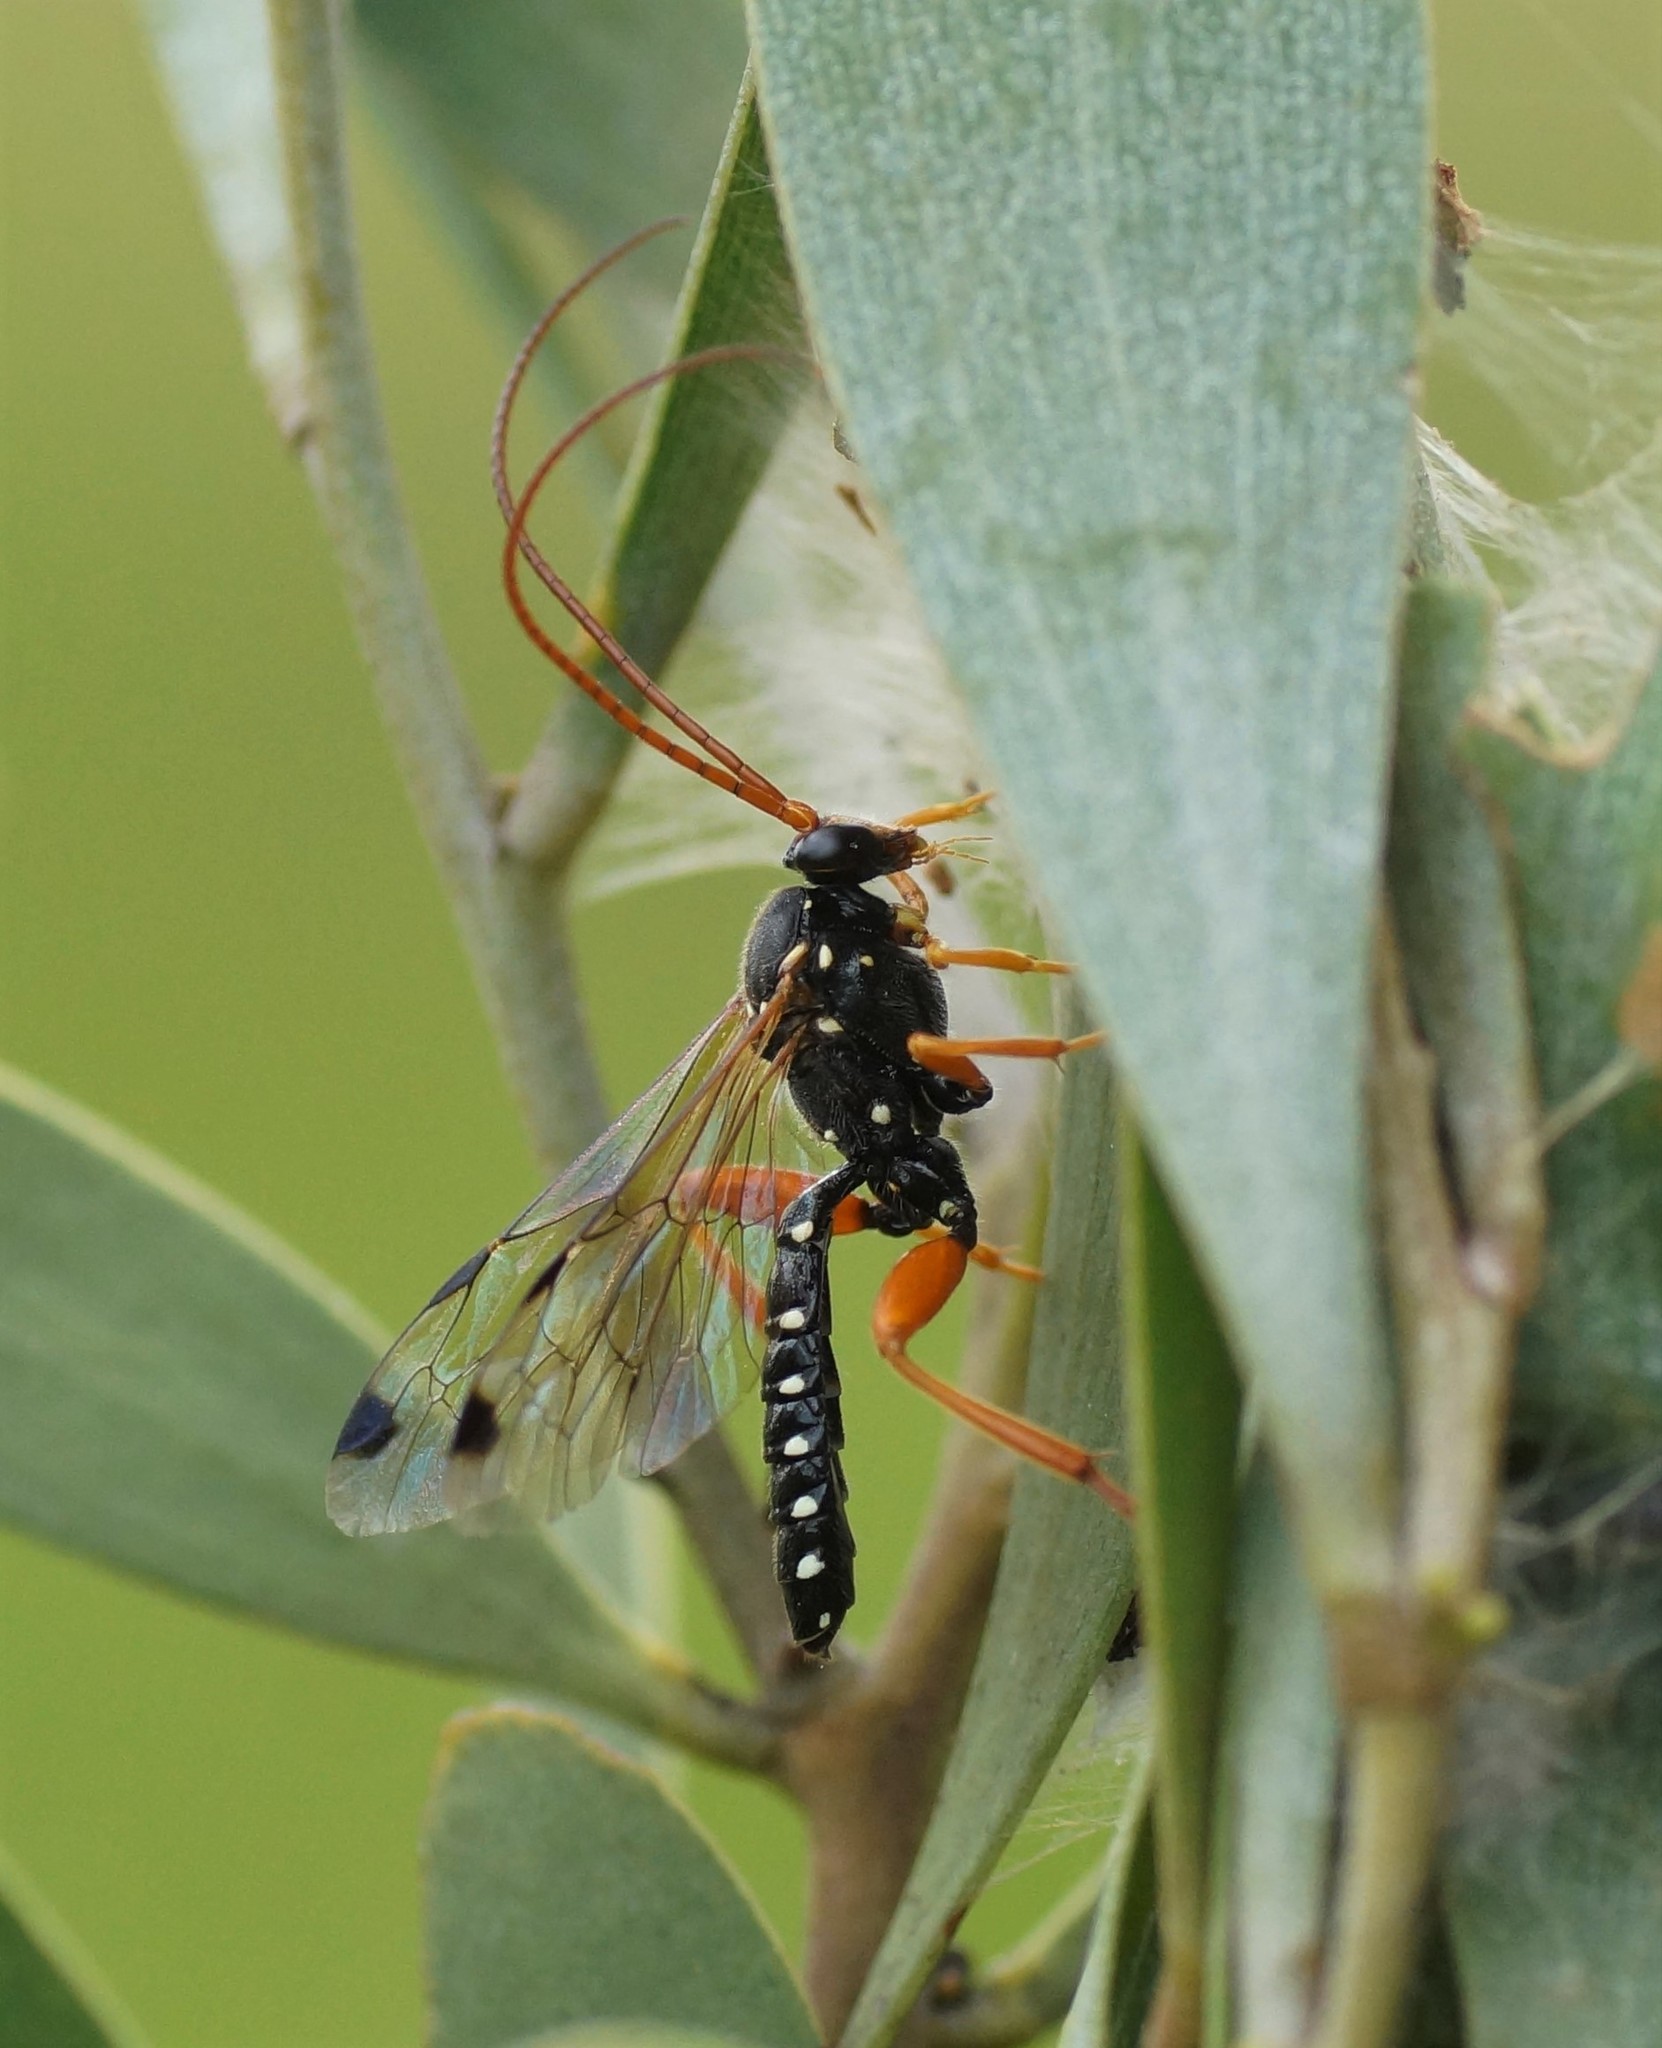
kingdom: Animalia
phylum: Arthropoda
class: Insecta
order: Hymenoptera
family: Ichneumonidae
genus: Echthromorpha
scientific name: Echthromorpha intricatoria
